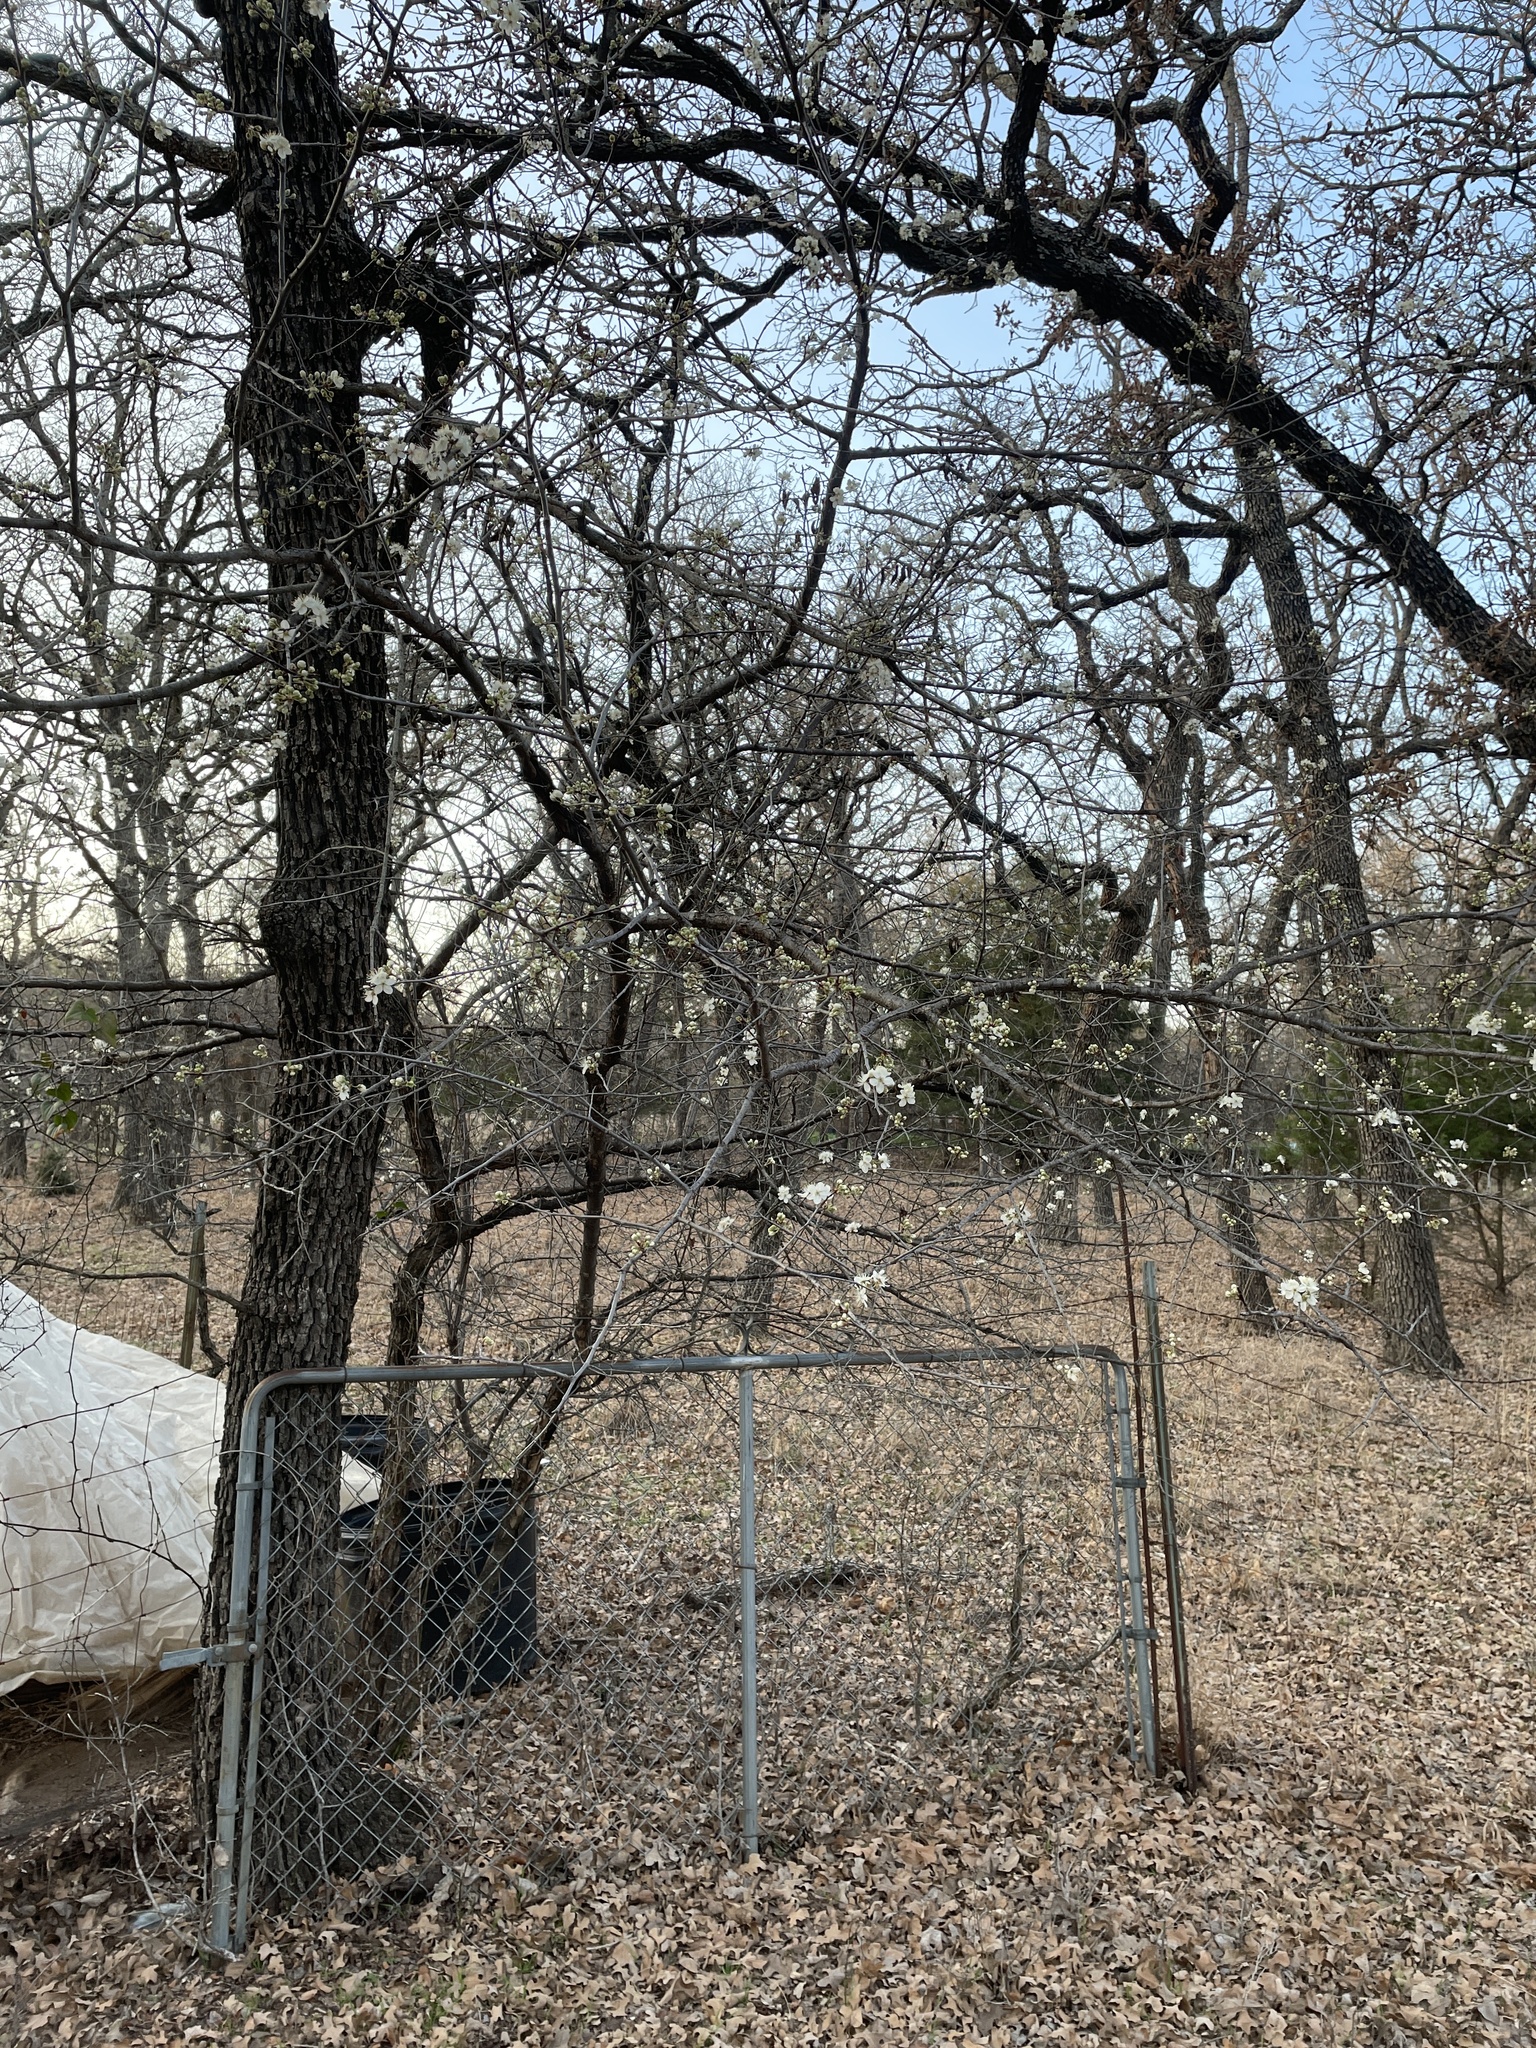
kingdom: Plantae
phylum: Tracheophyta
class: Magnoliopsida
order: Rosales
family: Rosaceae
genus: Prunus
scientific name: Prunus mexicana
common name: Mexican plum
